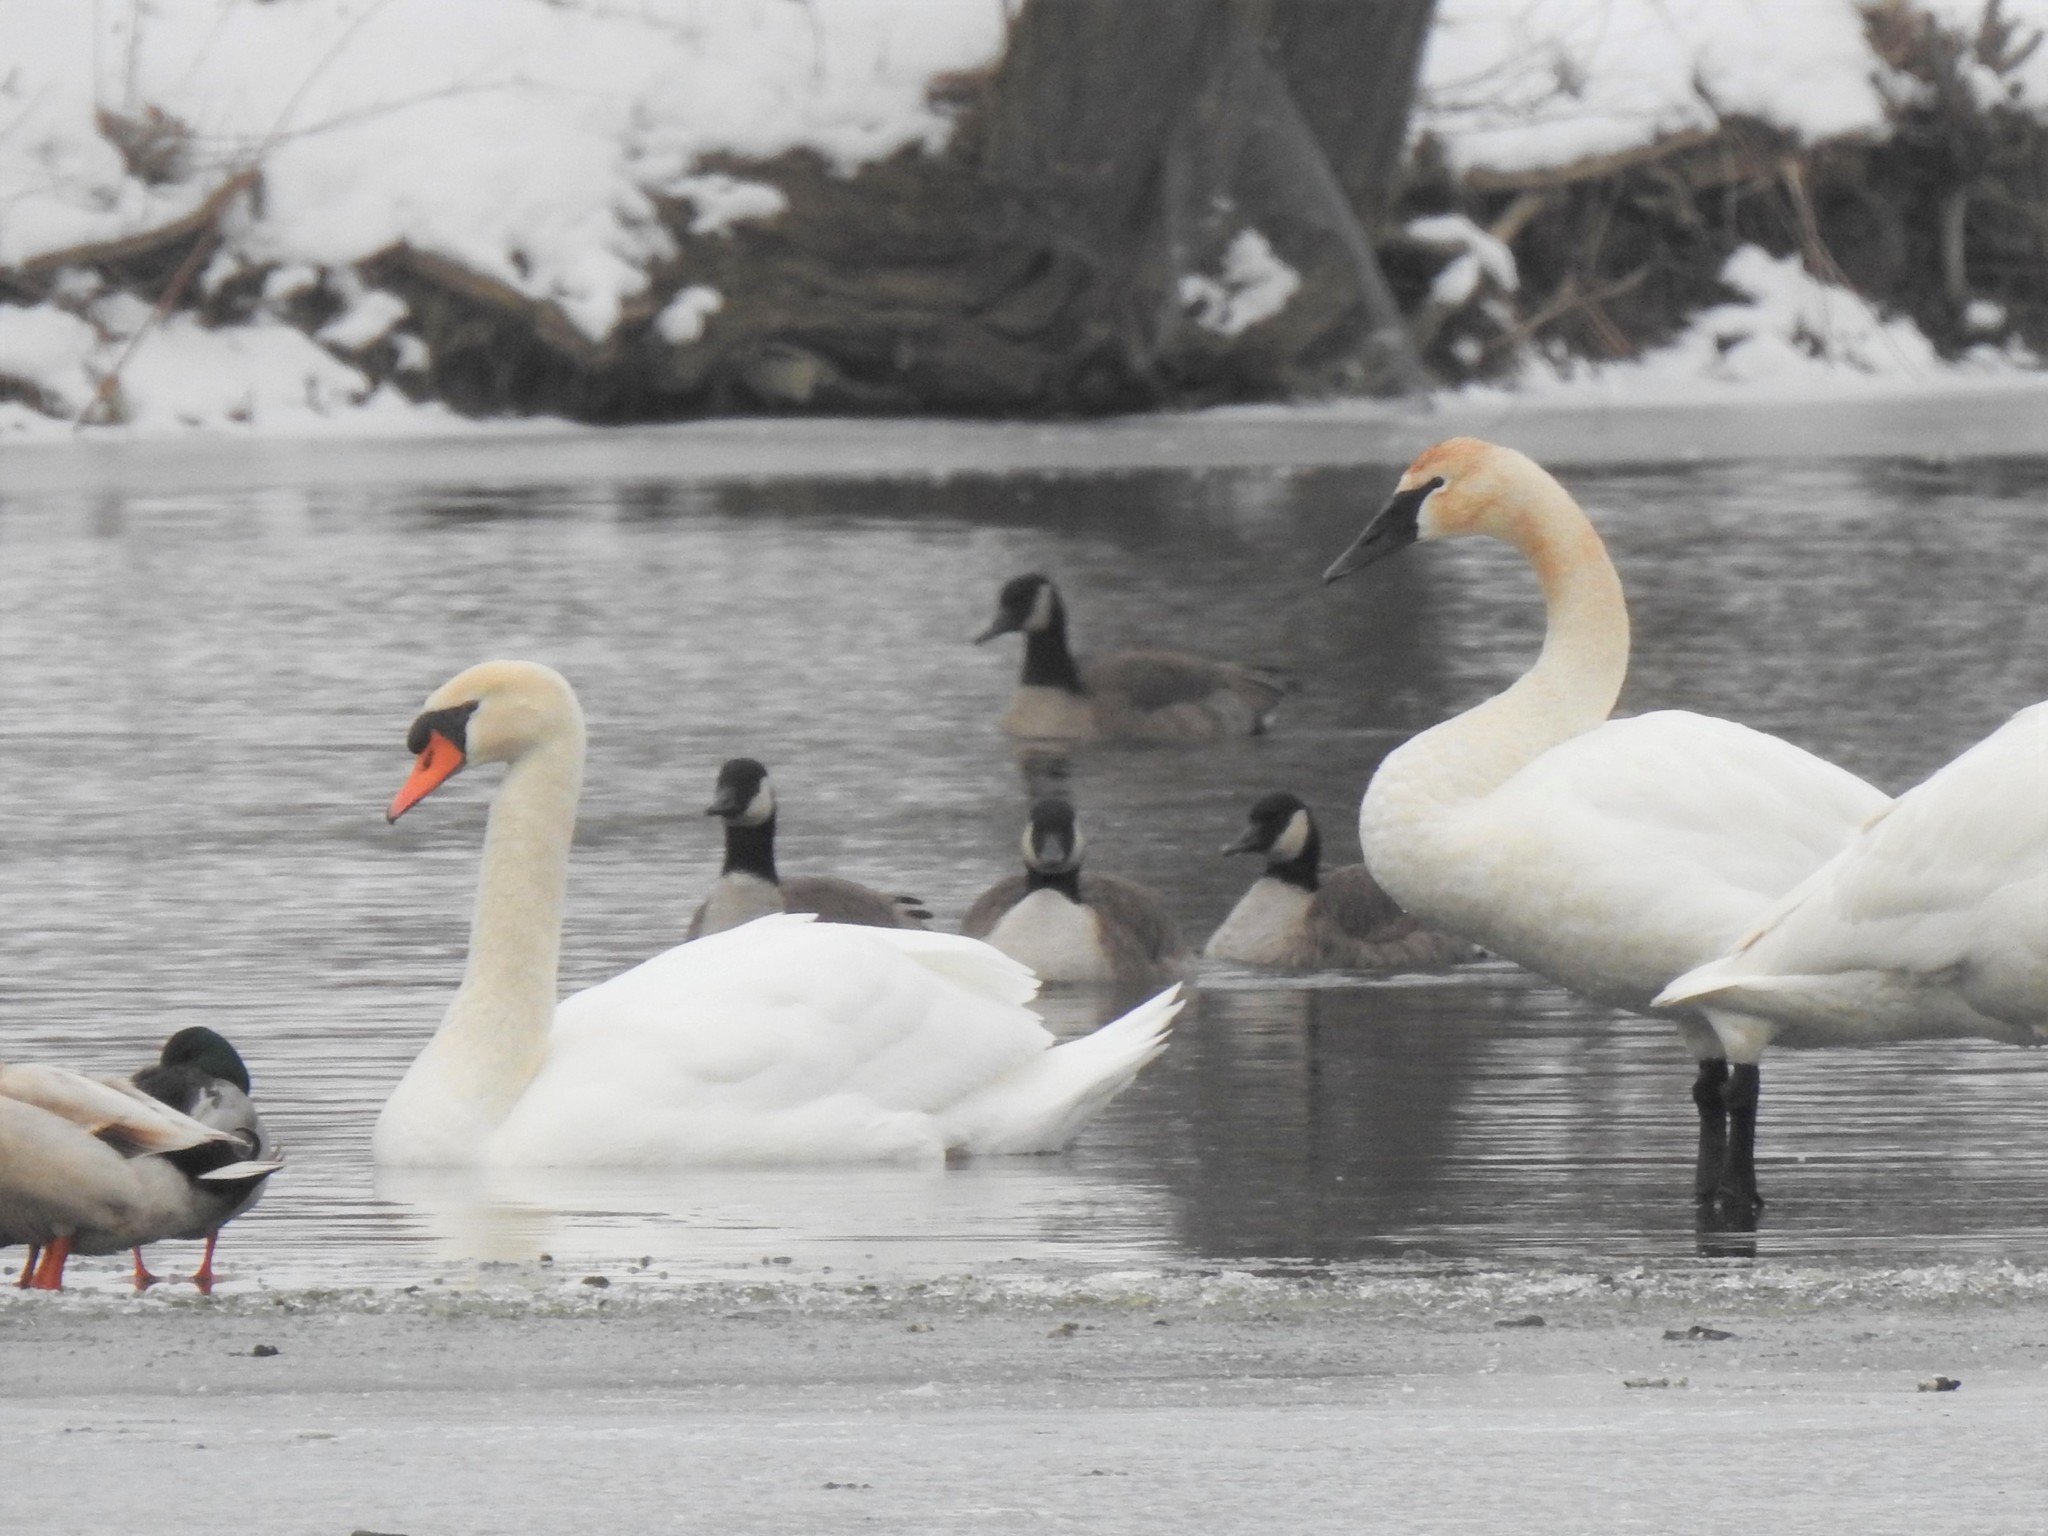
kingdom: Animalia
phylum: Chordata
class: Aves
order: Anseriformes
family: Anatidae
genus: Cygnus
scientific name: Cygnus olor
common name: Mute swan
